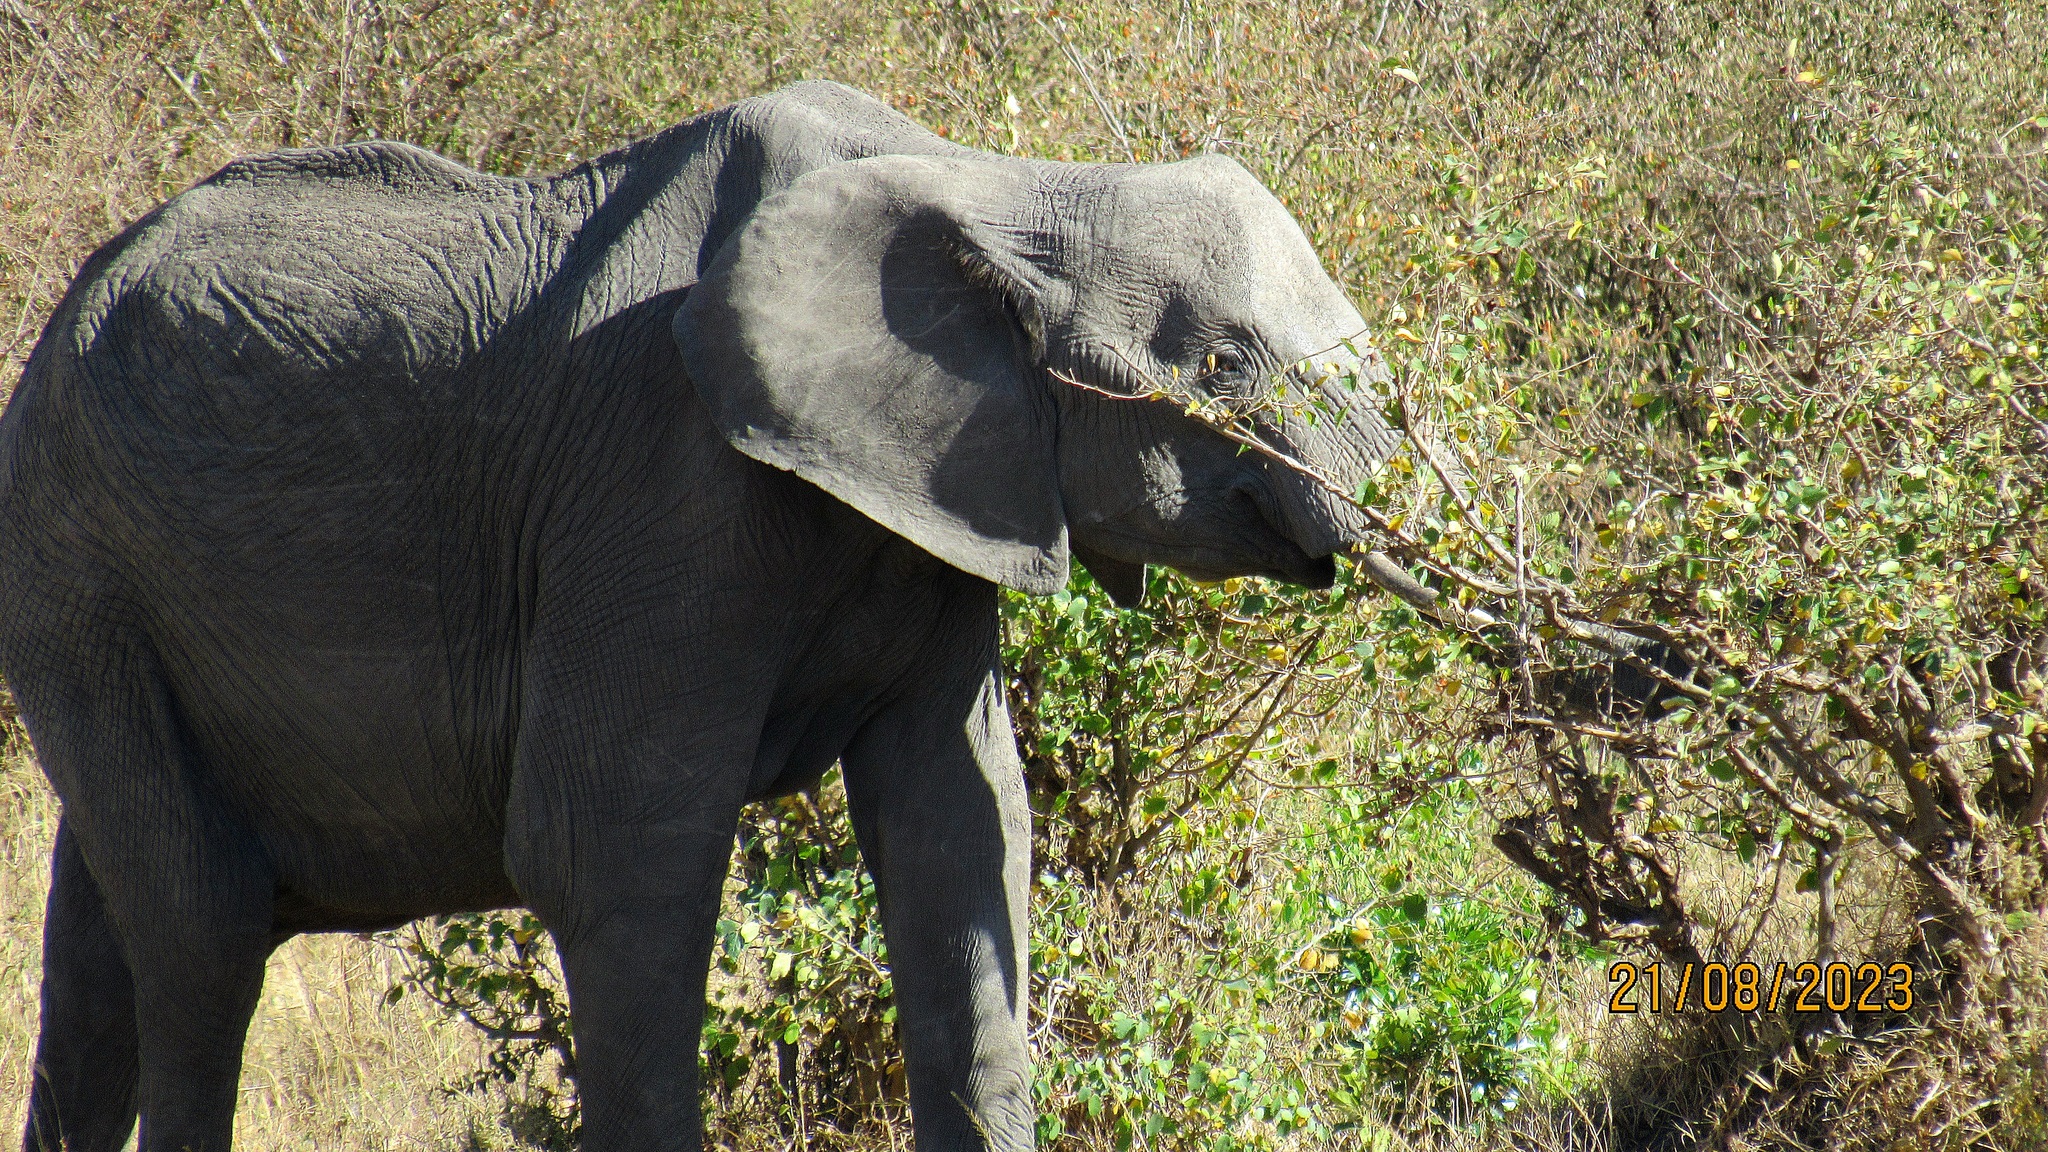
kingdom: Animalia
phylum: Chordata
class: Mammalia
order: Proboscidea
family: Elephantidae
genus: Loxodonta
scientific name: Loxodonta africana
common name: African elephant
